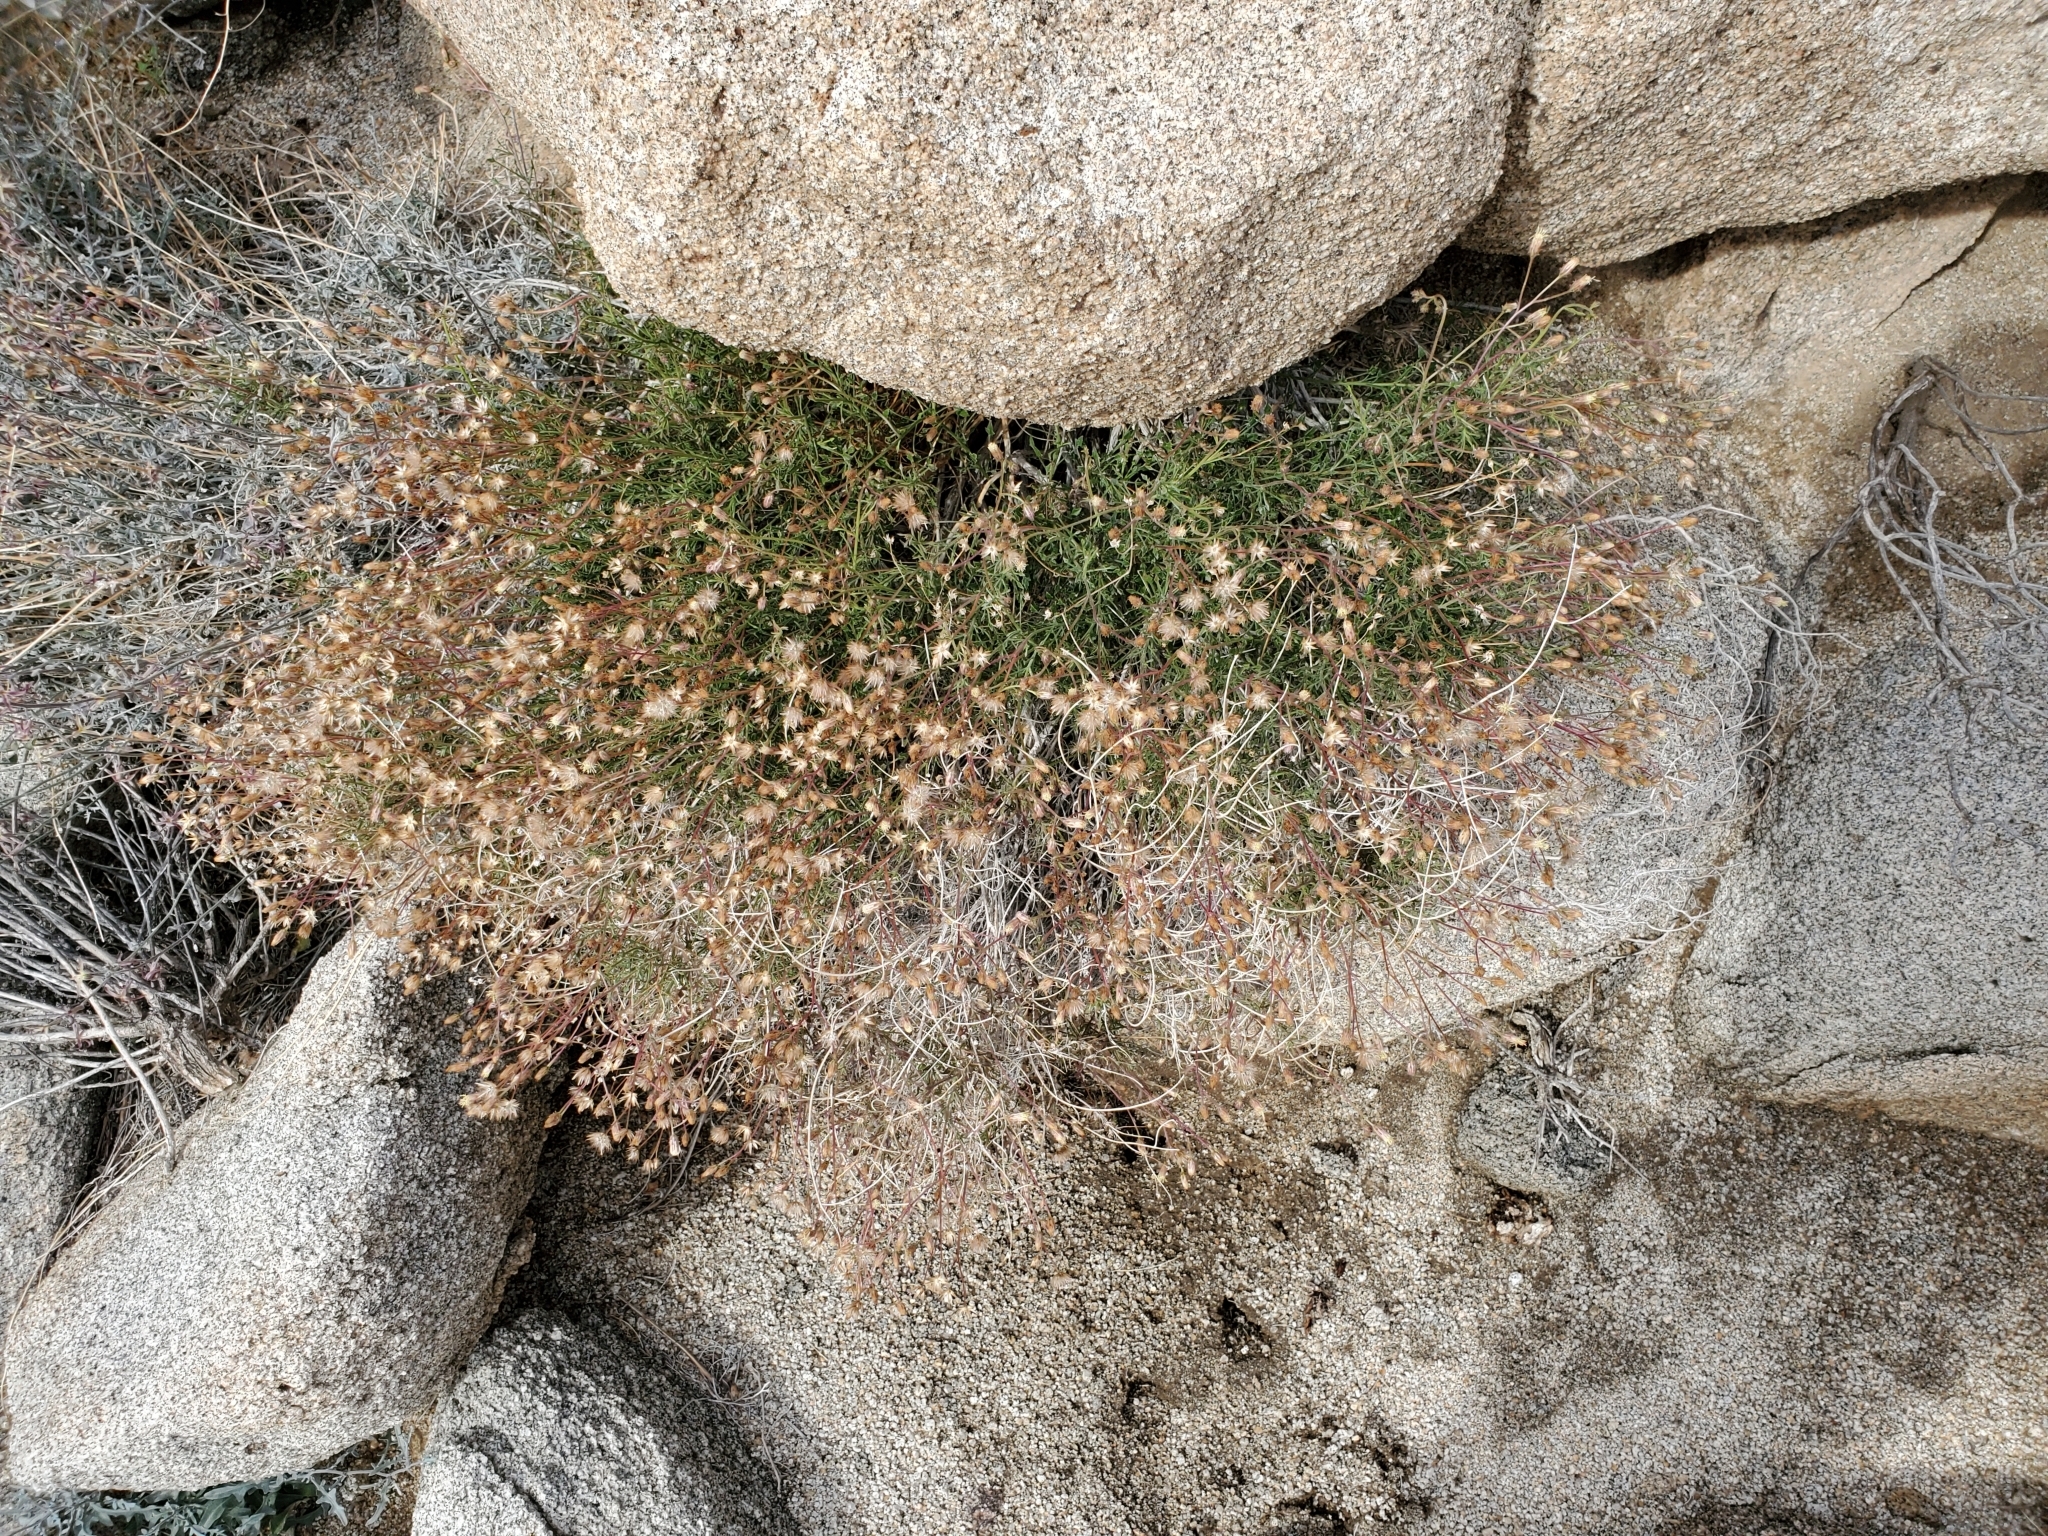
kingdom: Plantae
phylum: Tracheophyta
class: Magnoliopsida
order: Asterales
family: Asteraceae
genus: Pleurocoronis
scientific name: Pleurocoronis pluriseta
